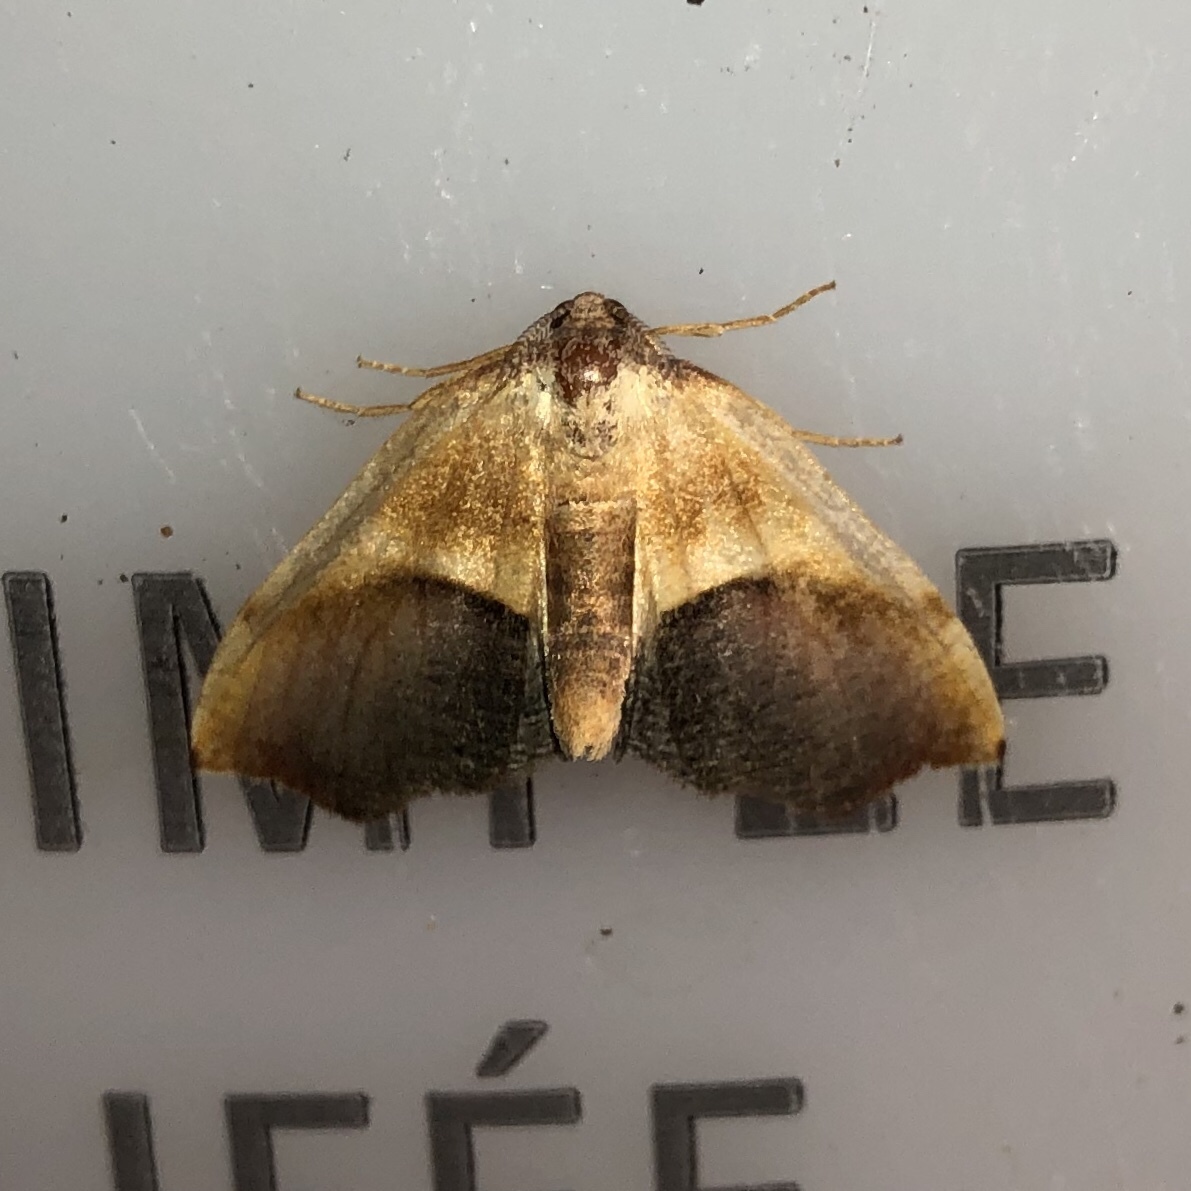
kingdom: Animalia
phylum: Arthropoda
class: Insecta
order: Lepidoptera
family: Geometridae
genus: Plagodis
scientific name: Plagodis kuetzingi
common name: Purple plagodis
